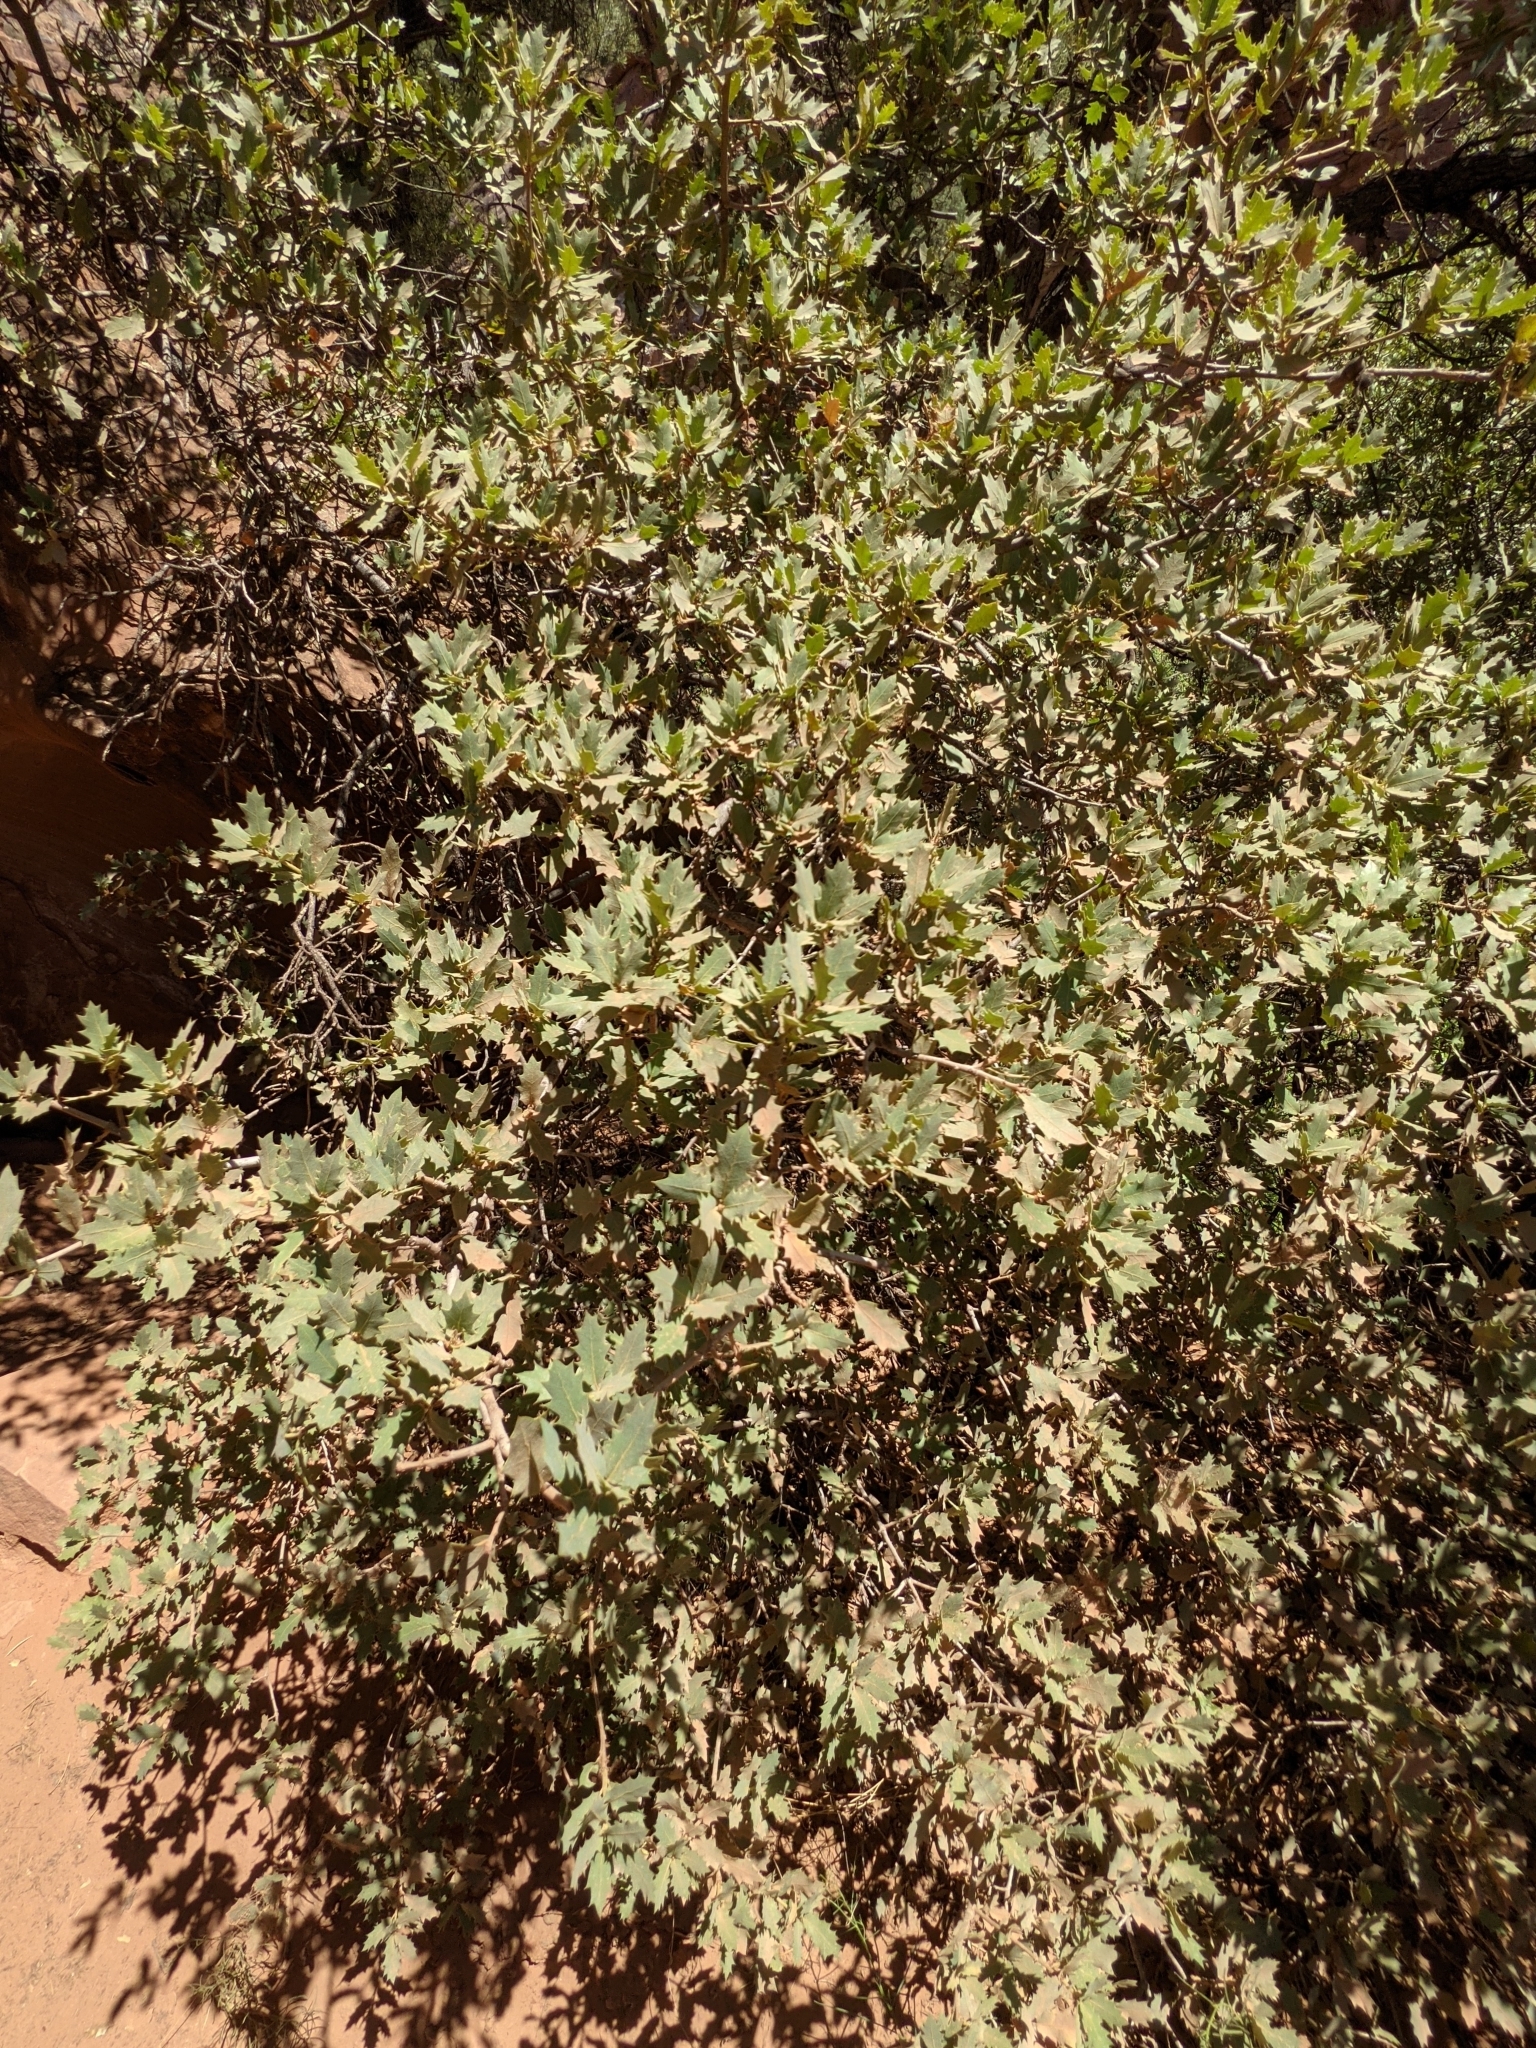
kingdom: Plantae
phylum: Tracheophyta
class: Magnoliopsida
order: Fagales
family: Fagaceae
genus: Quercus
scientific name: Quercus turbinella
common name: Sonoran scrub oak
